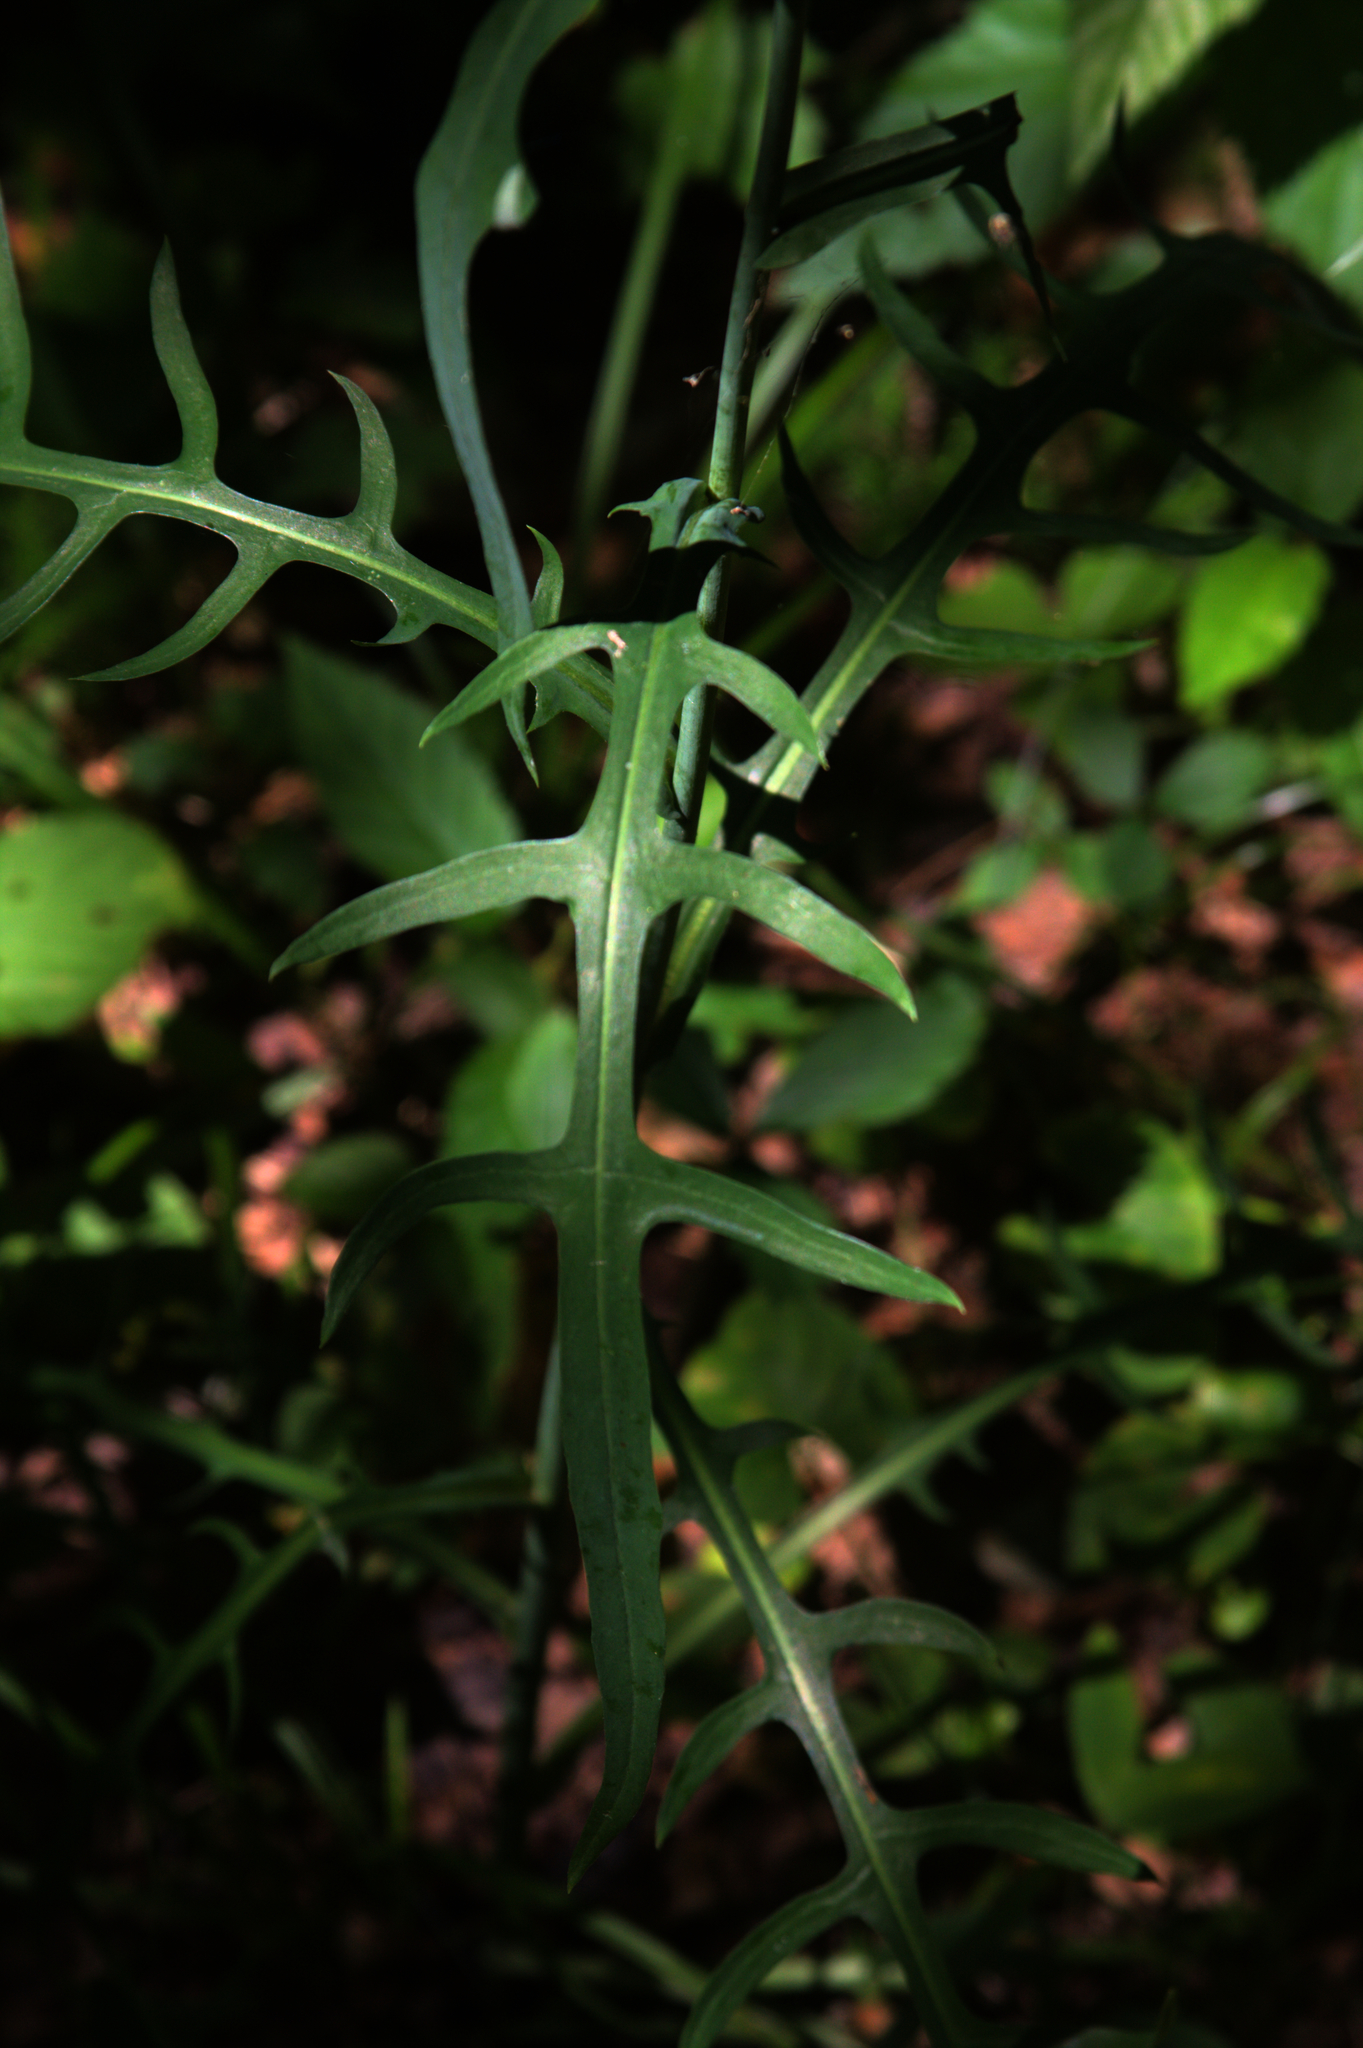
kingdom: Plantae
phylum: Tracheophyta
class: Magnoliopsida
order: Asterales
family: Asteraceae
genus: Lactuca
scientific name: Lactuca canadensis
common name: Canada lettuce
